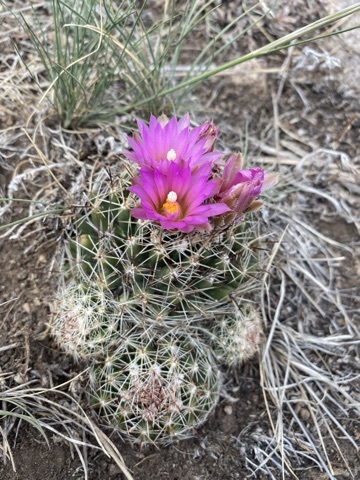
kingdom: Plantae
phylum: Tracheophyta
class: Magnoliopsida
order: Caryophyllales
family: Cactaceae
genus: Pelecyphora
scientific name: Pelecyphora vivipara
